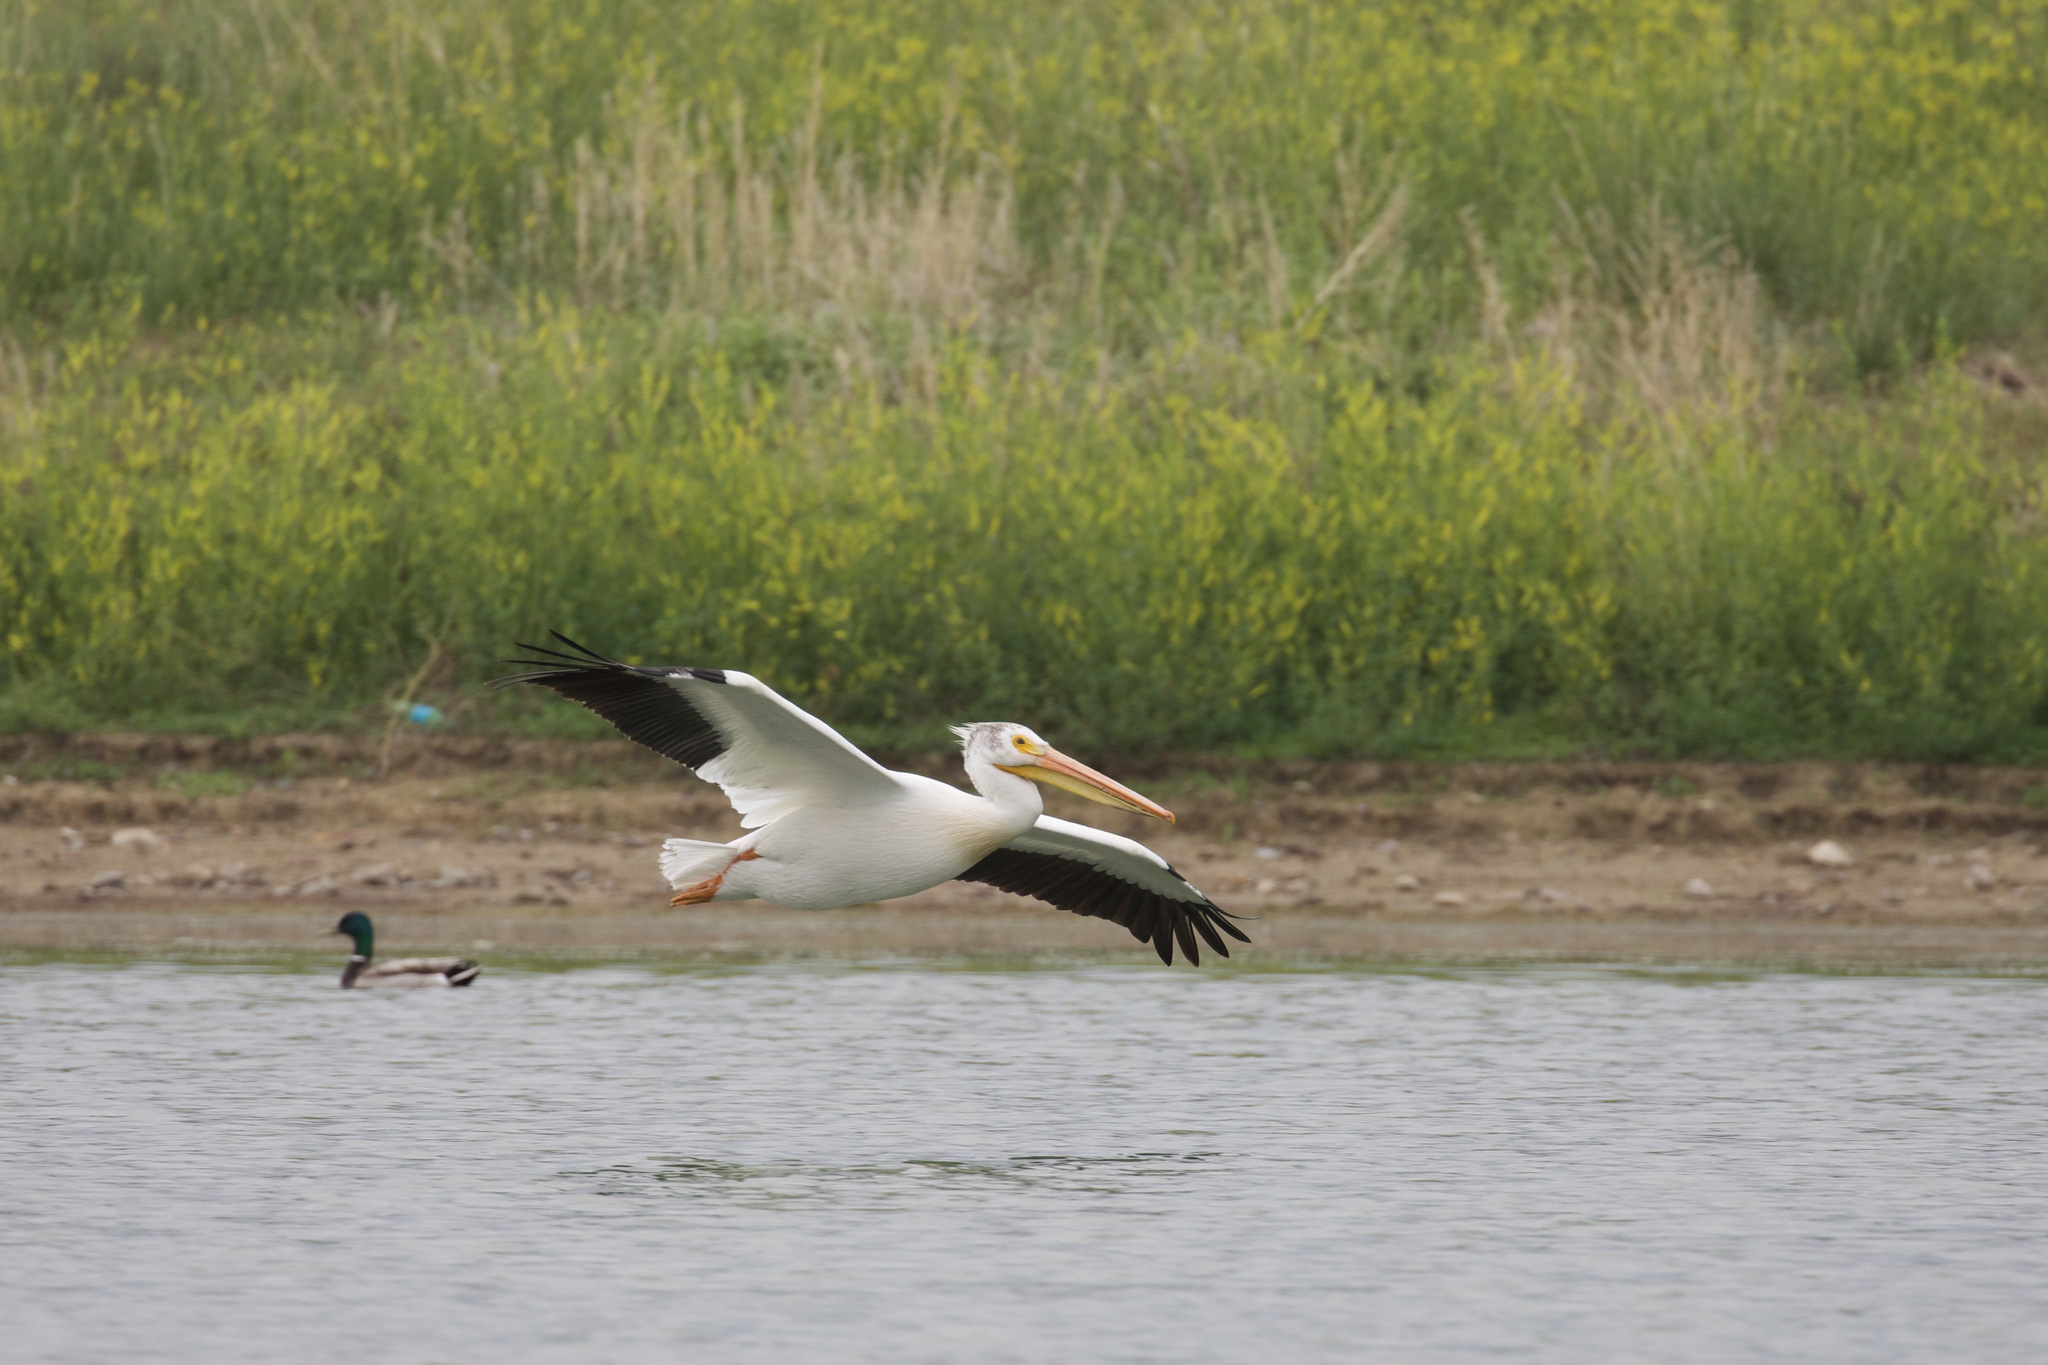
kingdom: Animalia
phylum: Chordata
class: Aves
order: Pelecaniformes
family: Pelecanidae
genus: Pelecanus
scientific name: Pelecanus erythrorhynchos
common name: American white pelican
